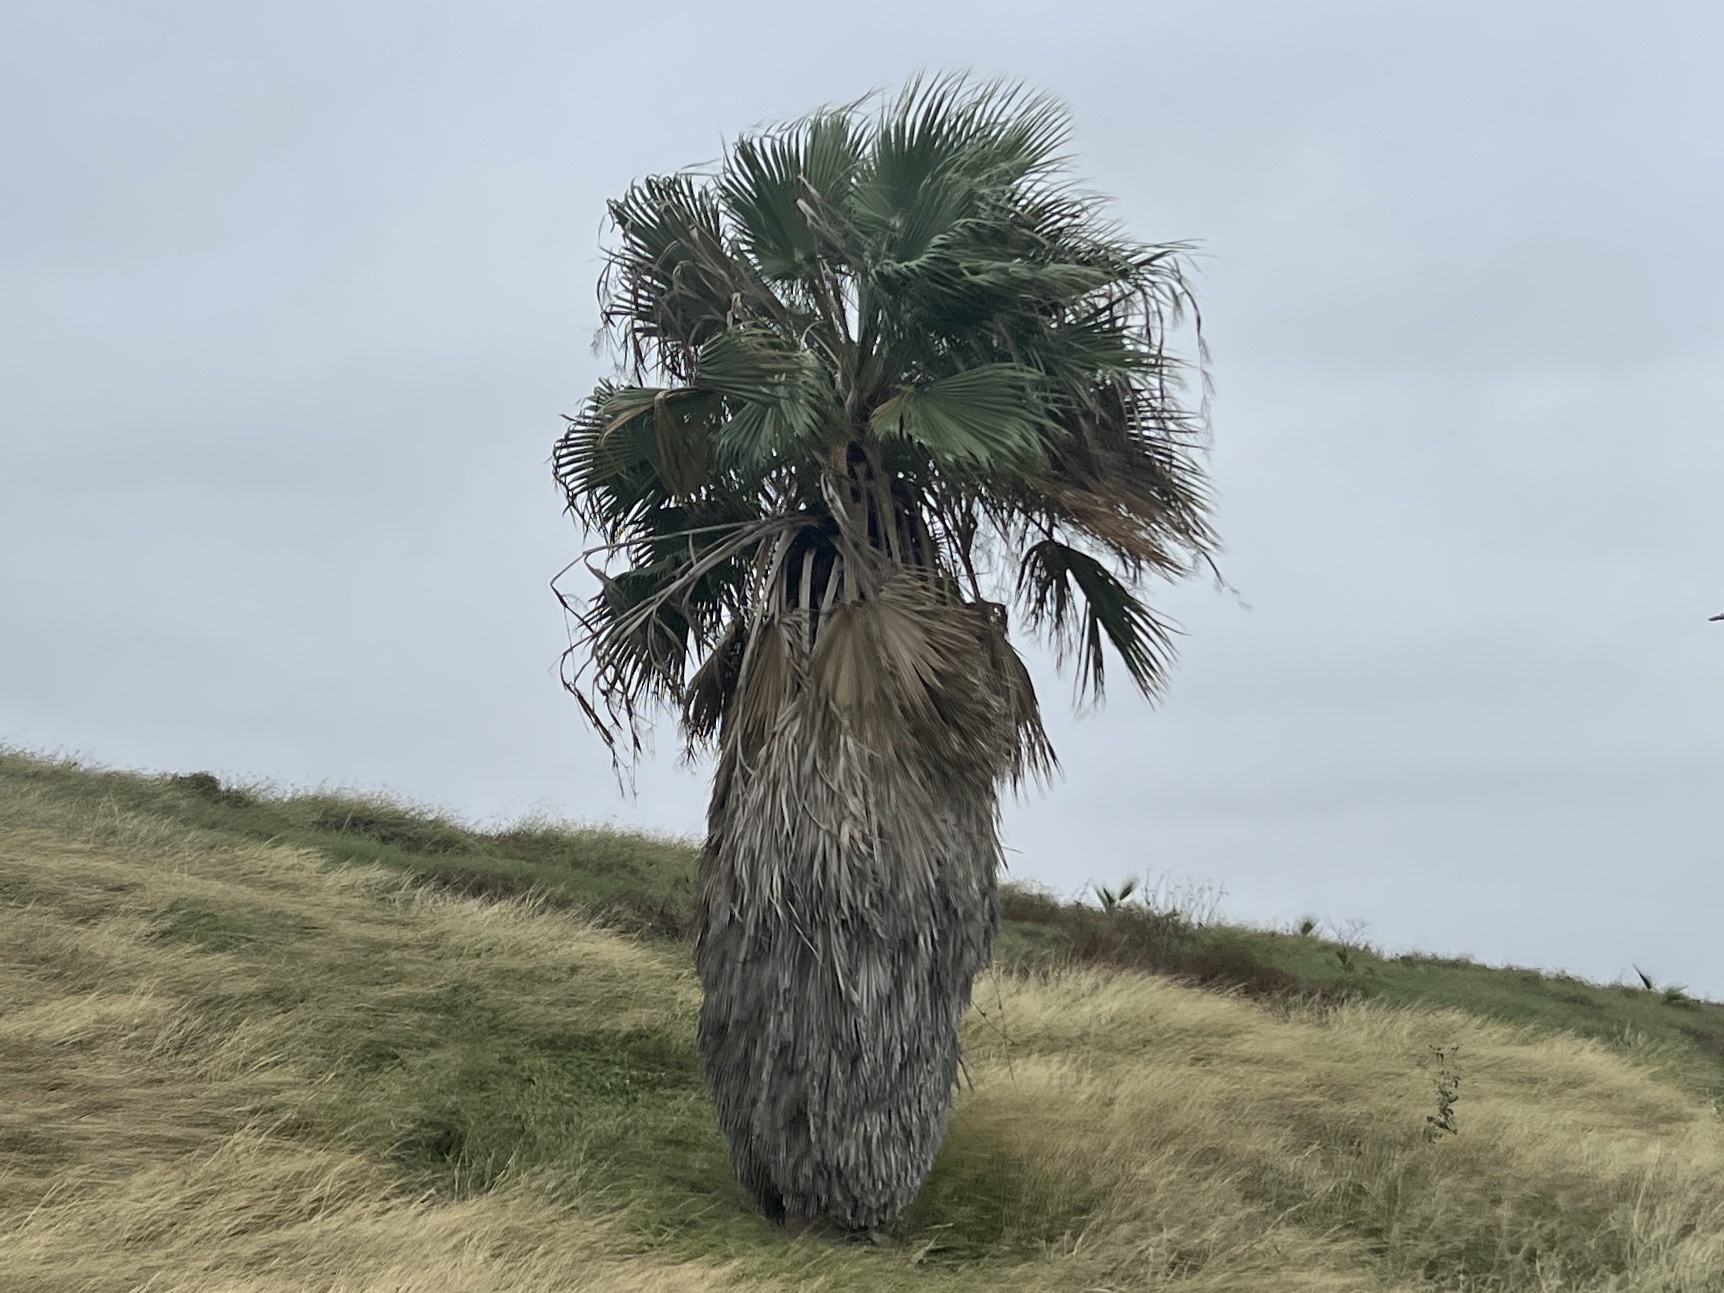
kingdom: Plantae
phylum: Tracheophyta
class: Liliopsida
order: Arecales
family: Arecaceae
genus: Washingtonia
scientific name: Washingtonia robusta
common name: Mexican fan palm
